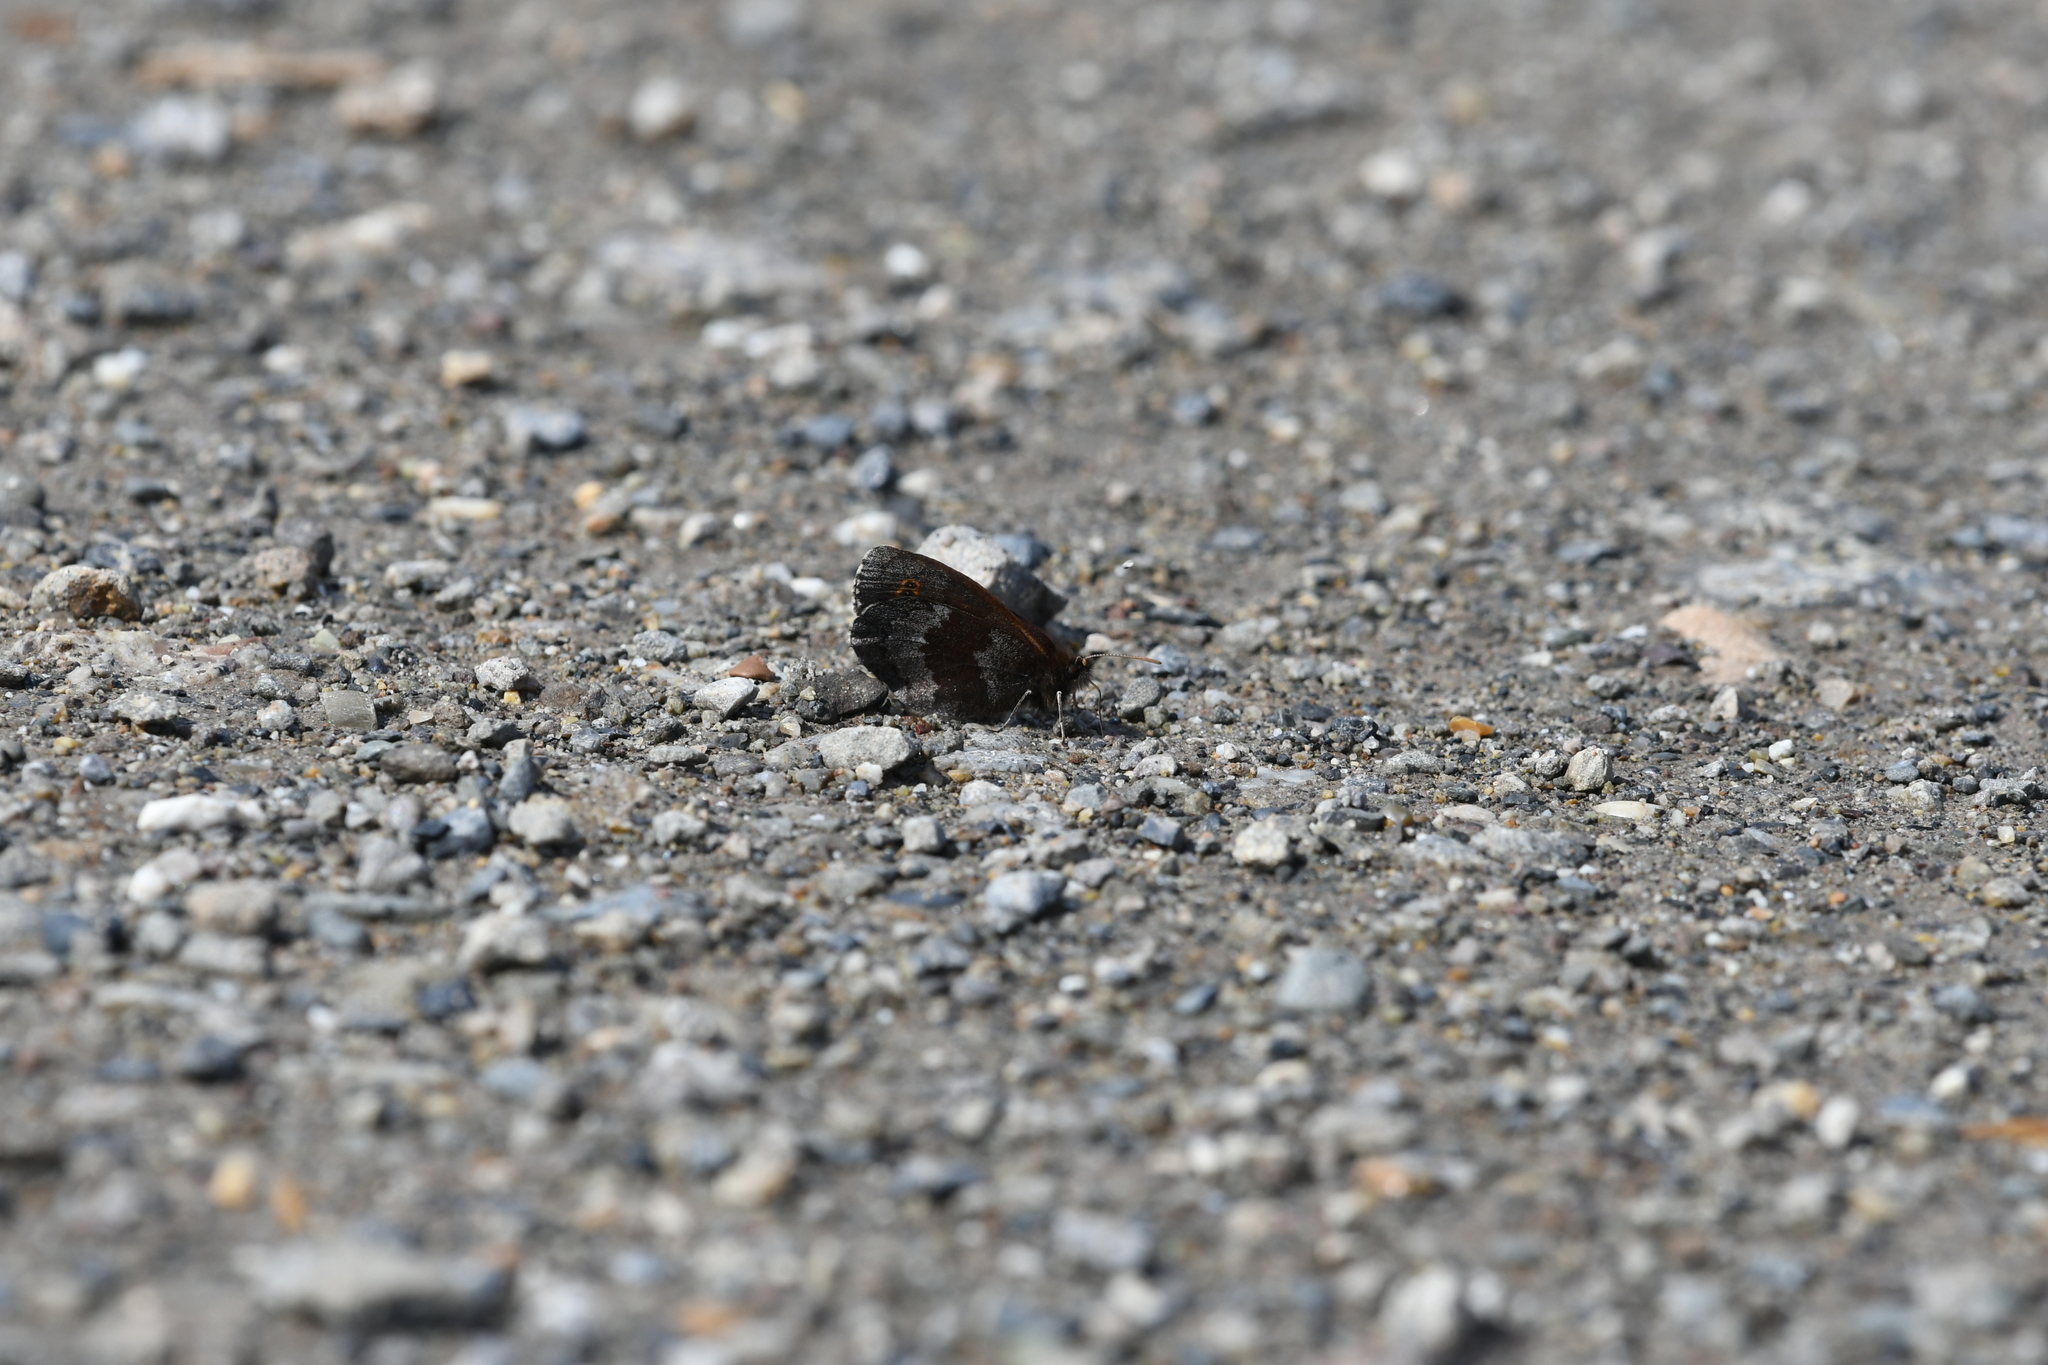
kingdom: Animalia
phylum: Arthropoda
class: Insecta
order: Lepidoptera
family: Nymphalidae
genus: Erebia
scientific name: Erebia disa
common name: Arctic ringlet
